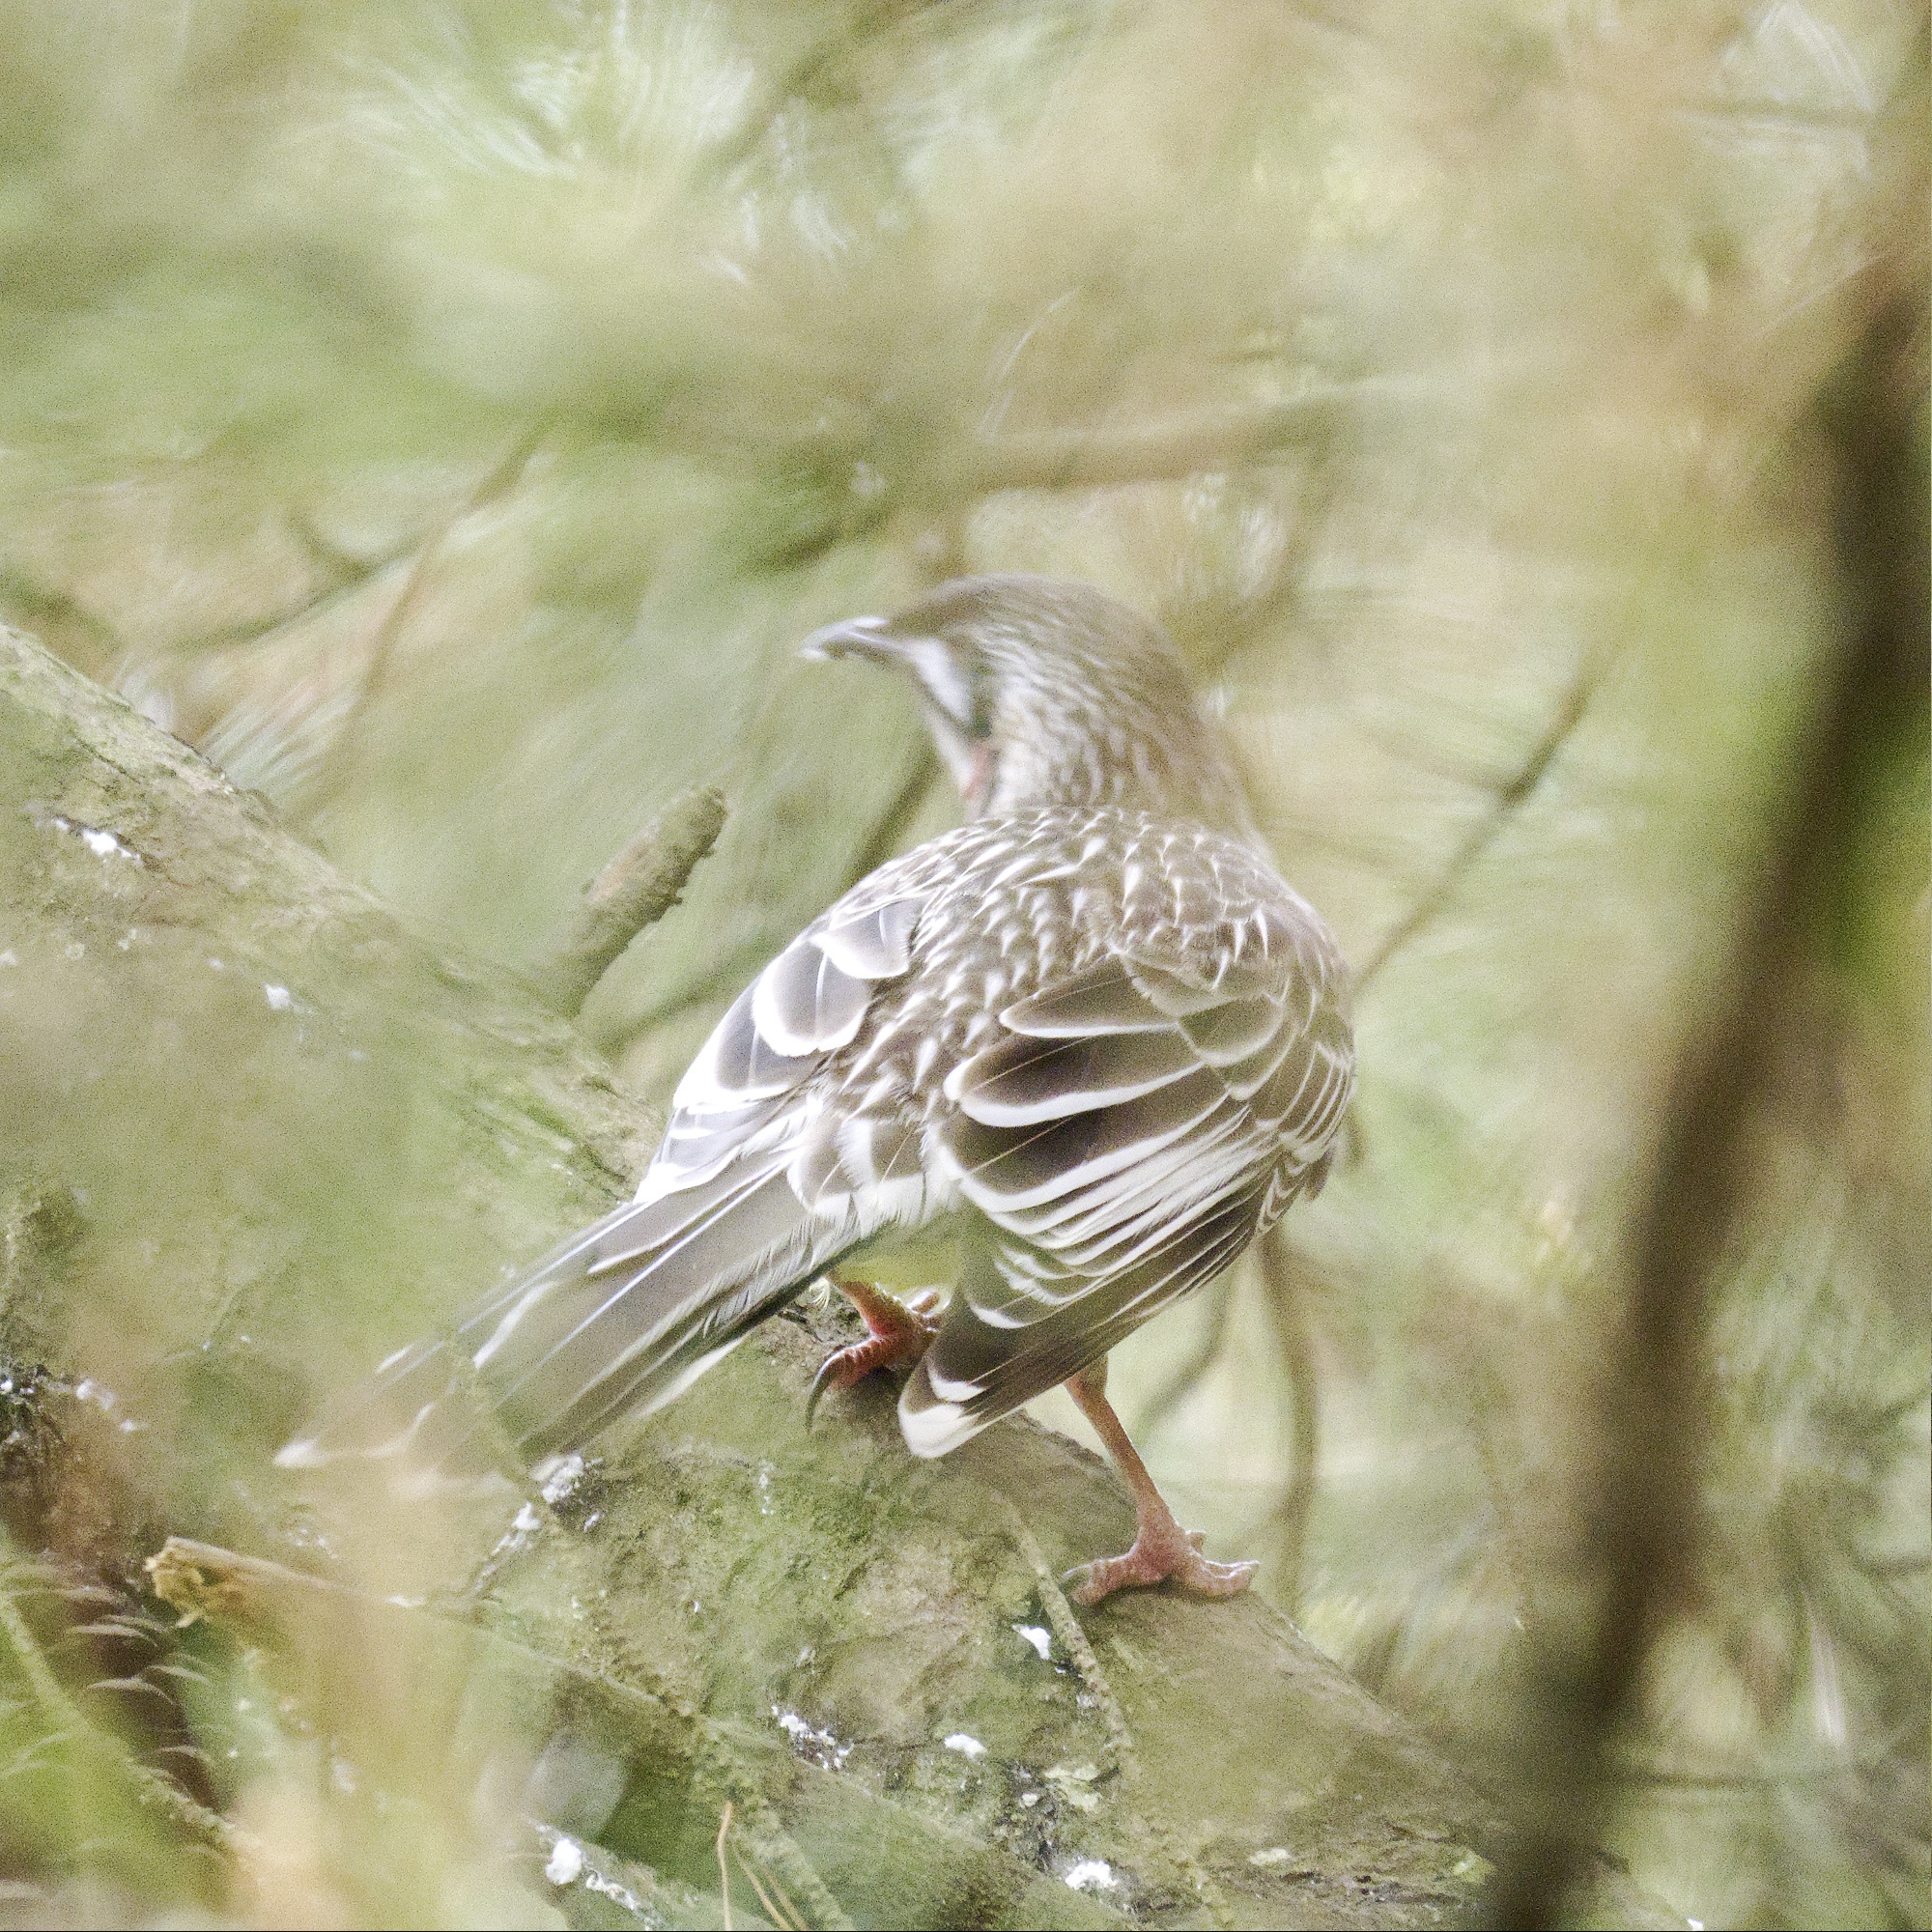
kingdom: Animalia
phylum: Chordata
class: Aves
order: Passeriformes
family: Meliphagidae
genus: Anthochaera
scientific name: Anthochaera carunculata
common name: Red wattlebird
